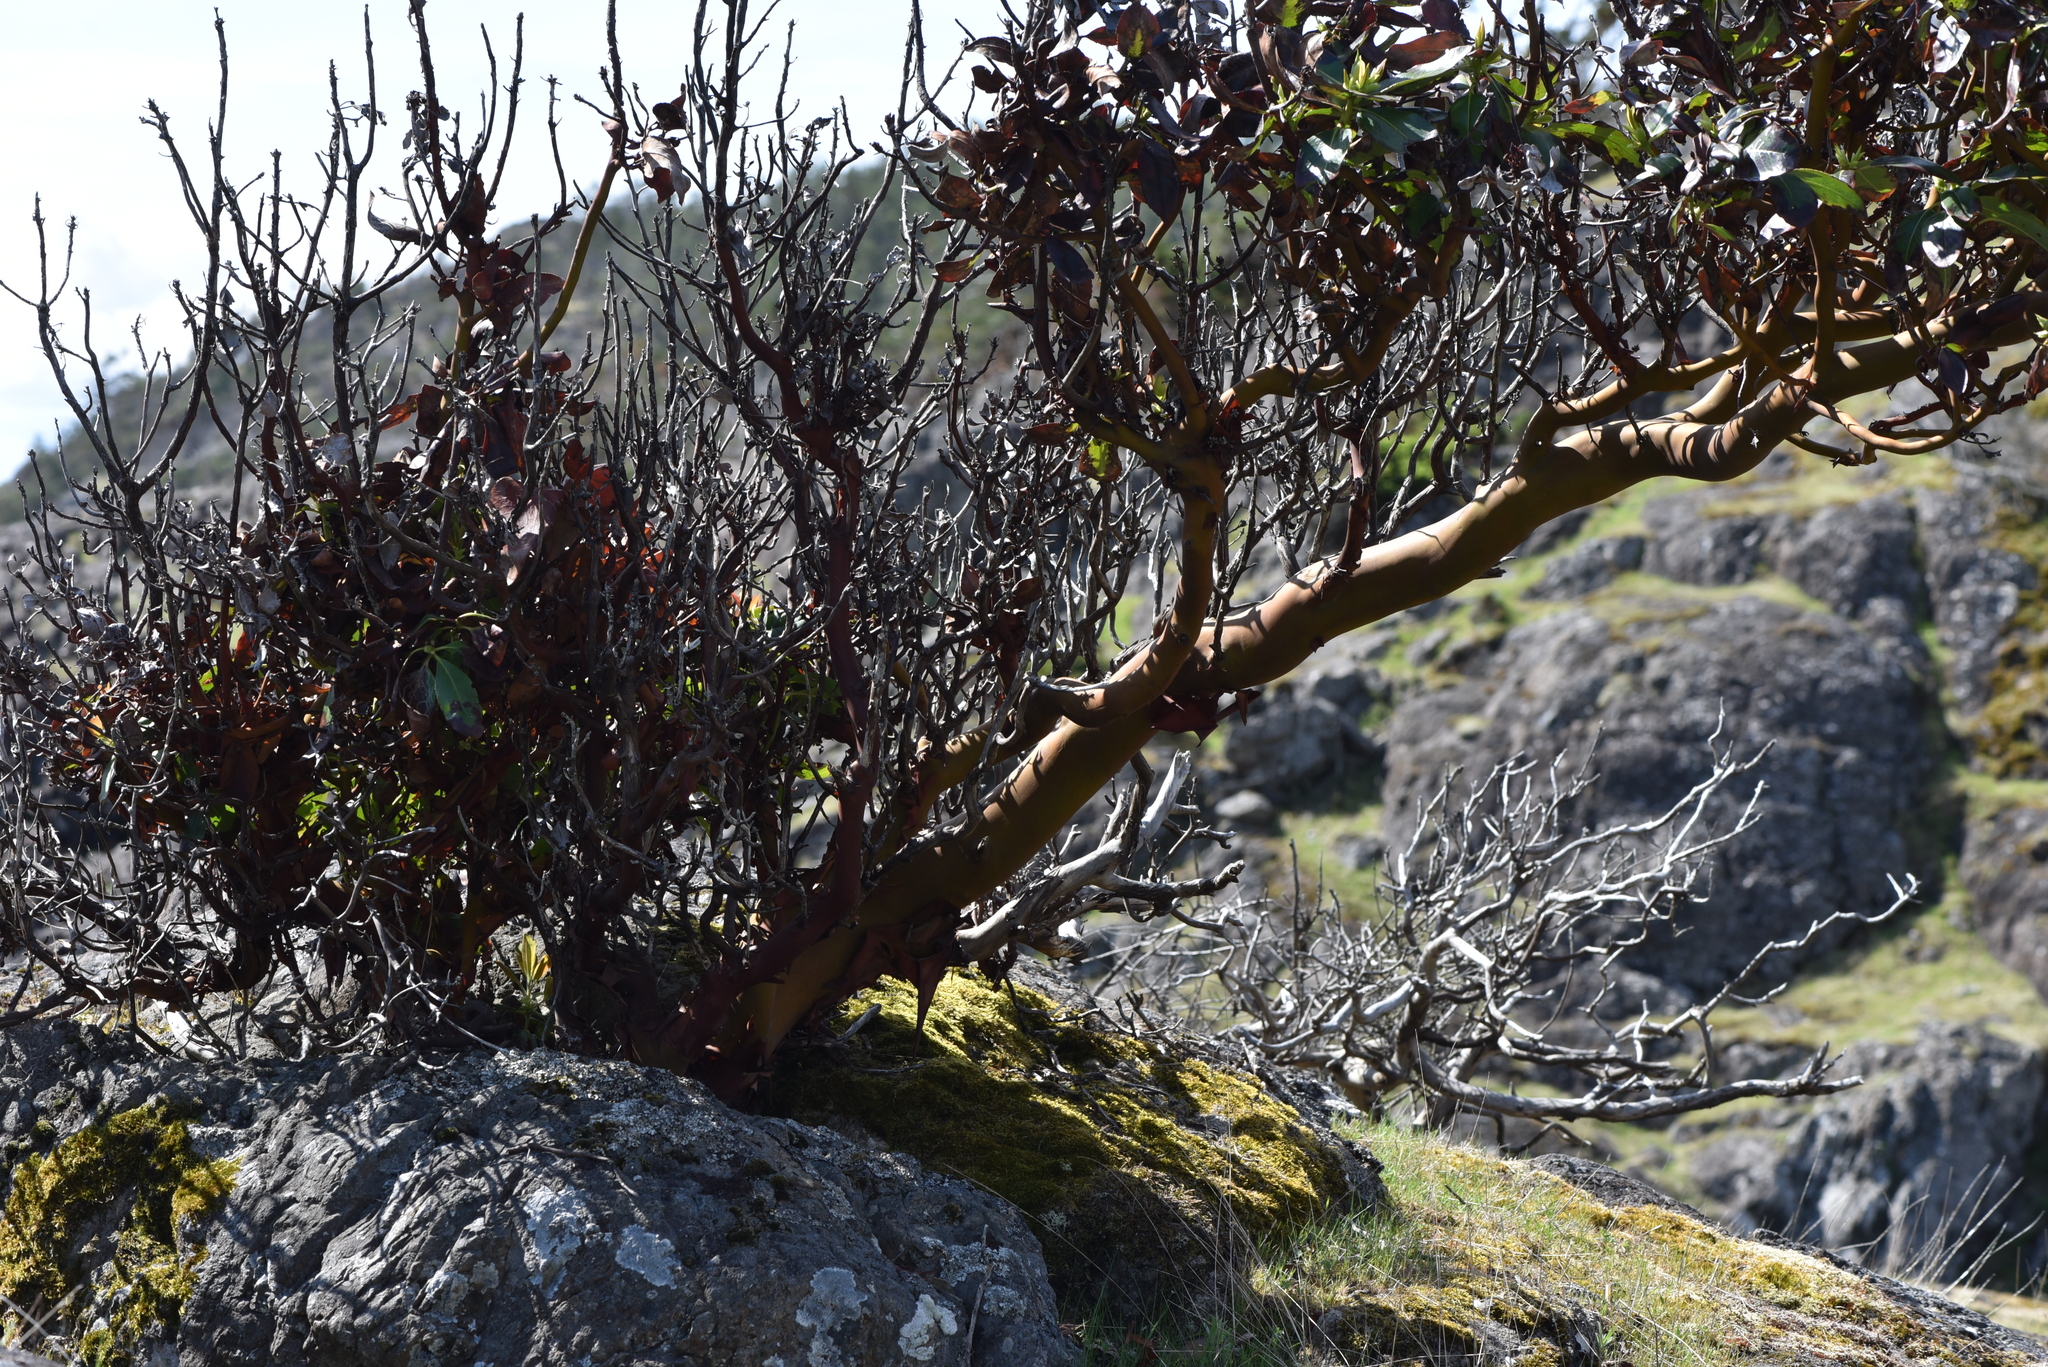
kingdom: Plantae
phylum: Tracheophyta
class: Magnoliopsida
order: Ericales
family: Ericaceae
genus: Arbutus
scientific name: Arbutus menziesii
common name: Pacific madrone
